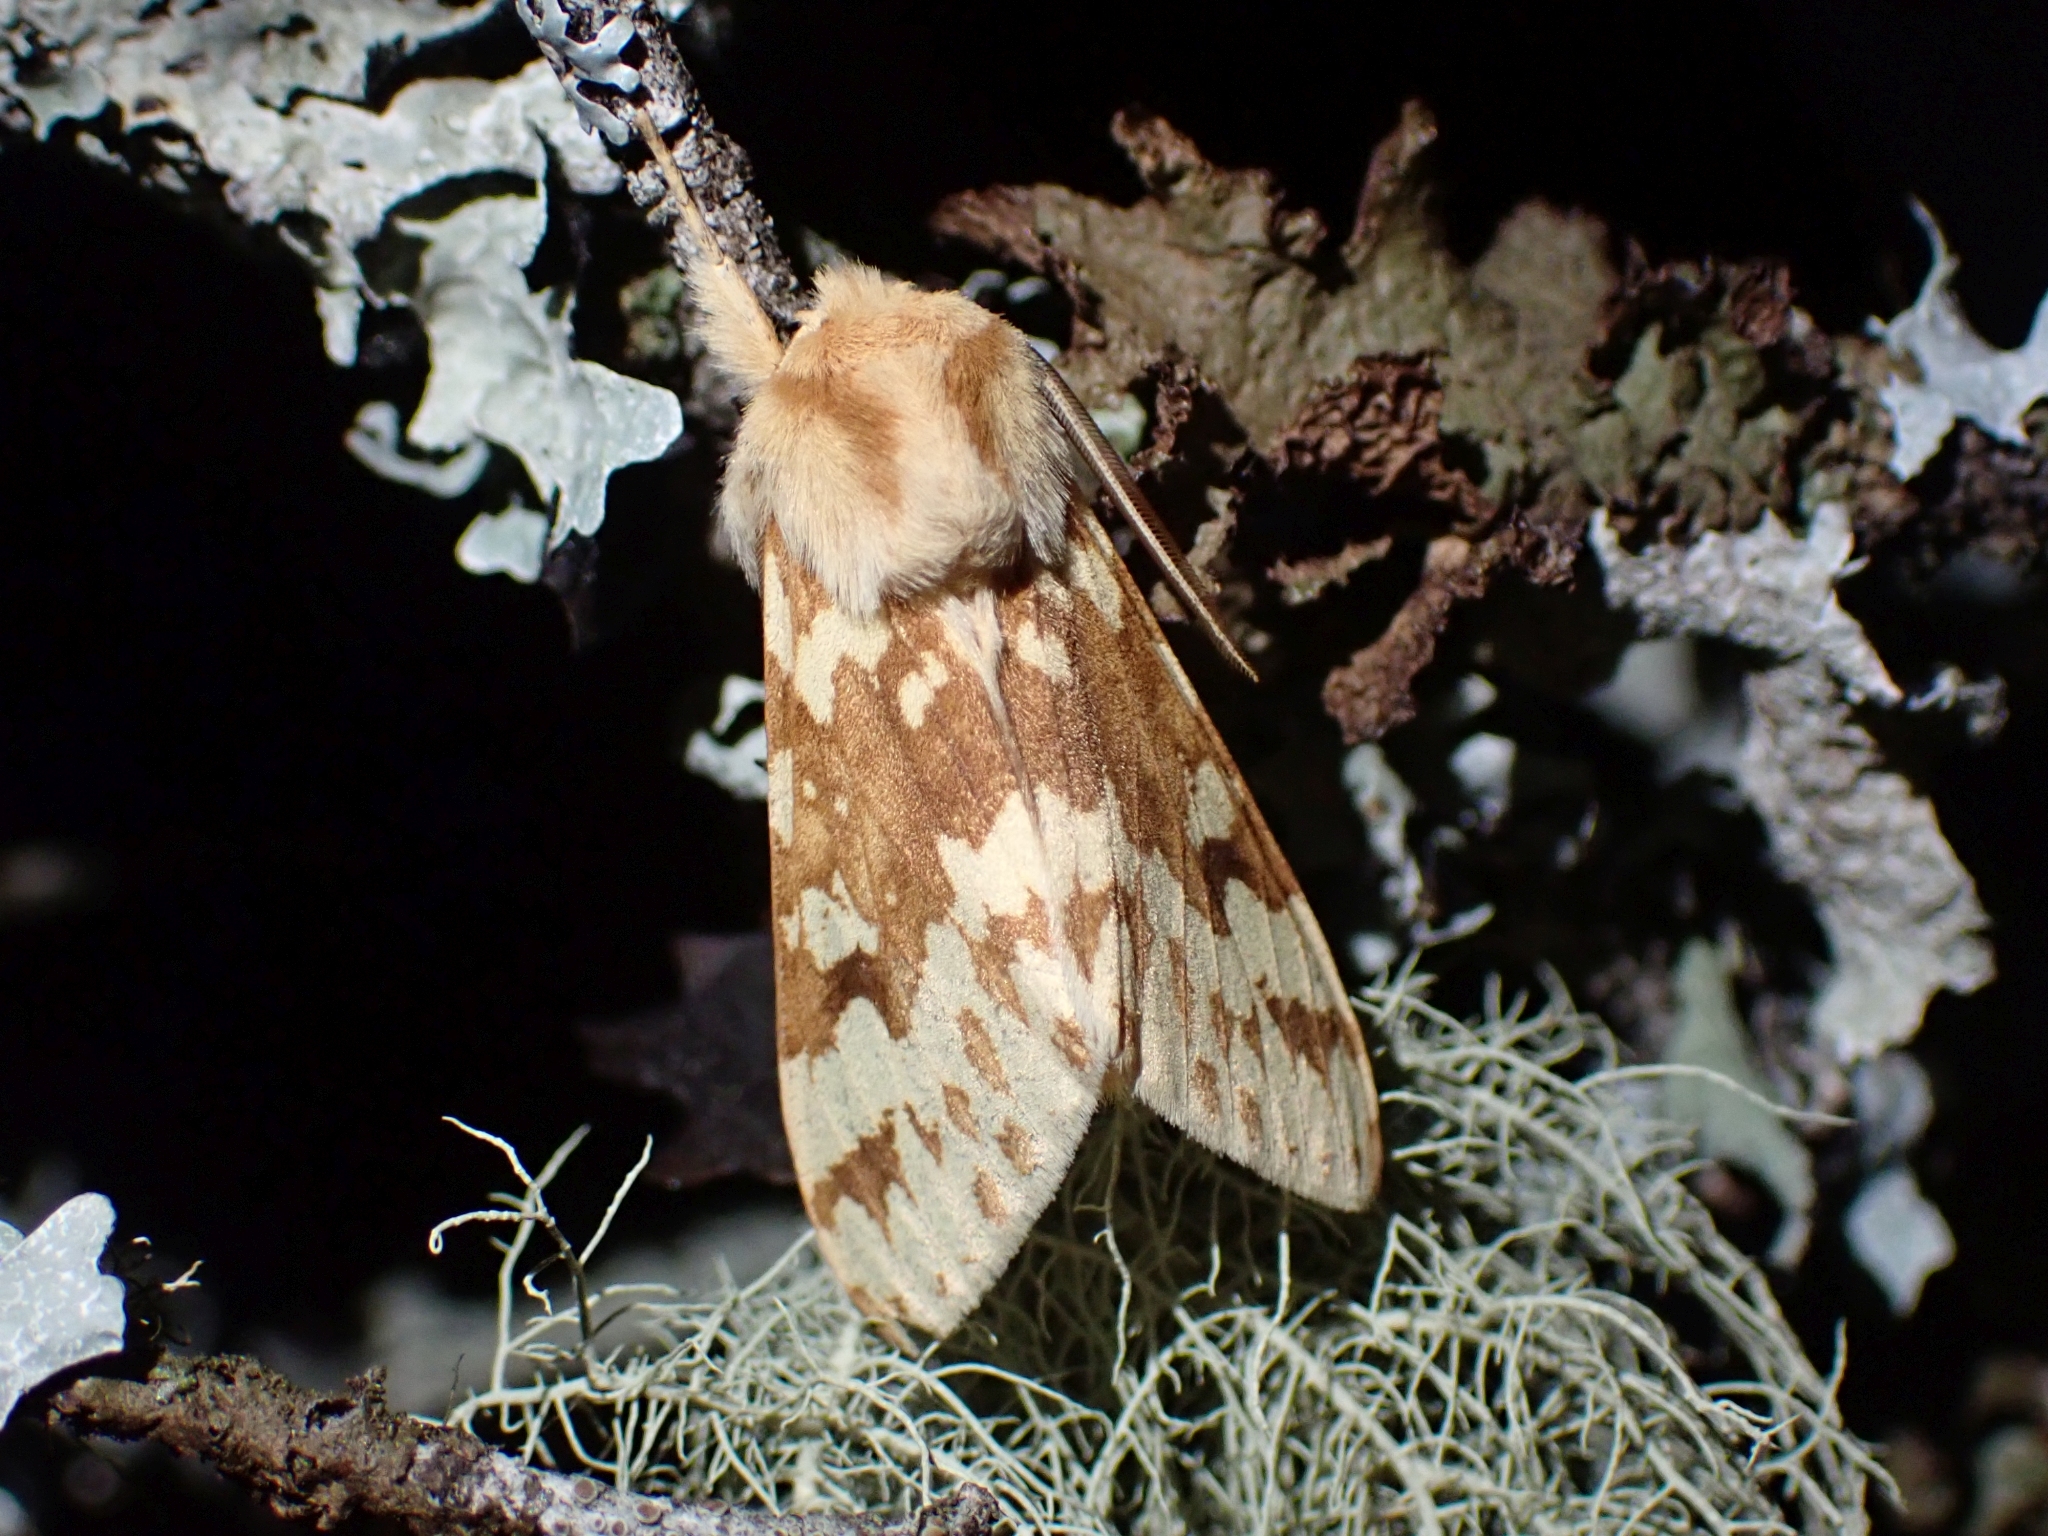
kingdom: Animalia
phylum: Arthropoda
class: Insecta
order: Lepidoptera
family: Erebidae
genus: Lophocampa
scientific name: Lophocampa maculata
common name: Spotted tussock moth
